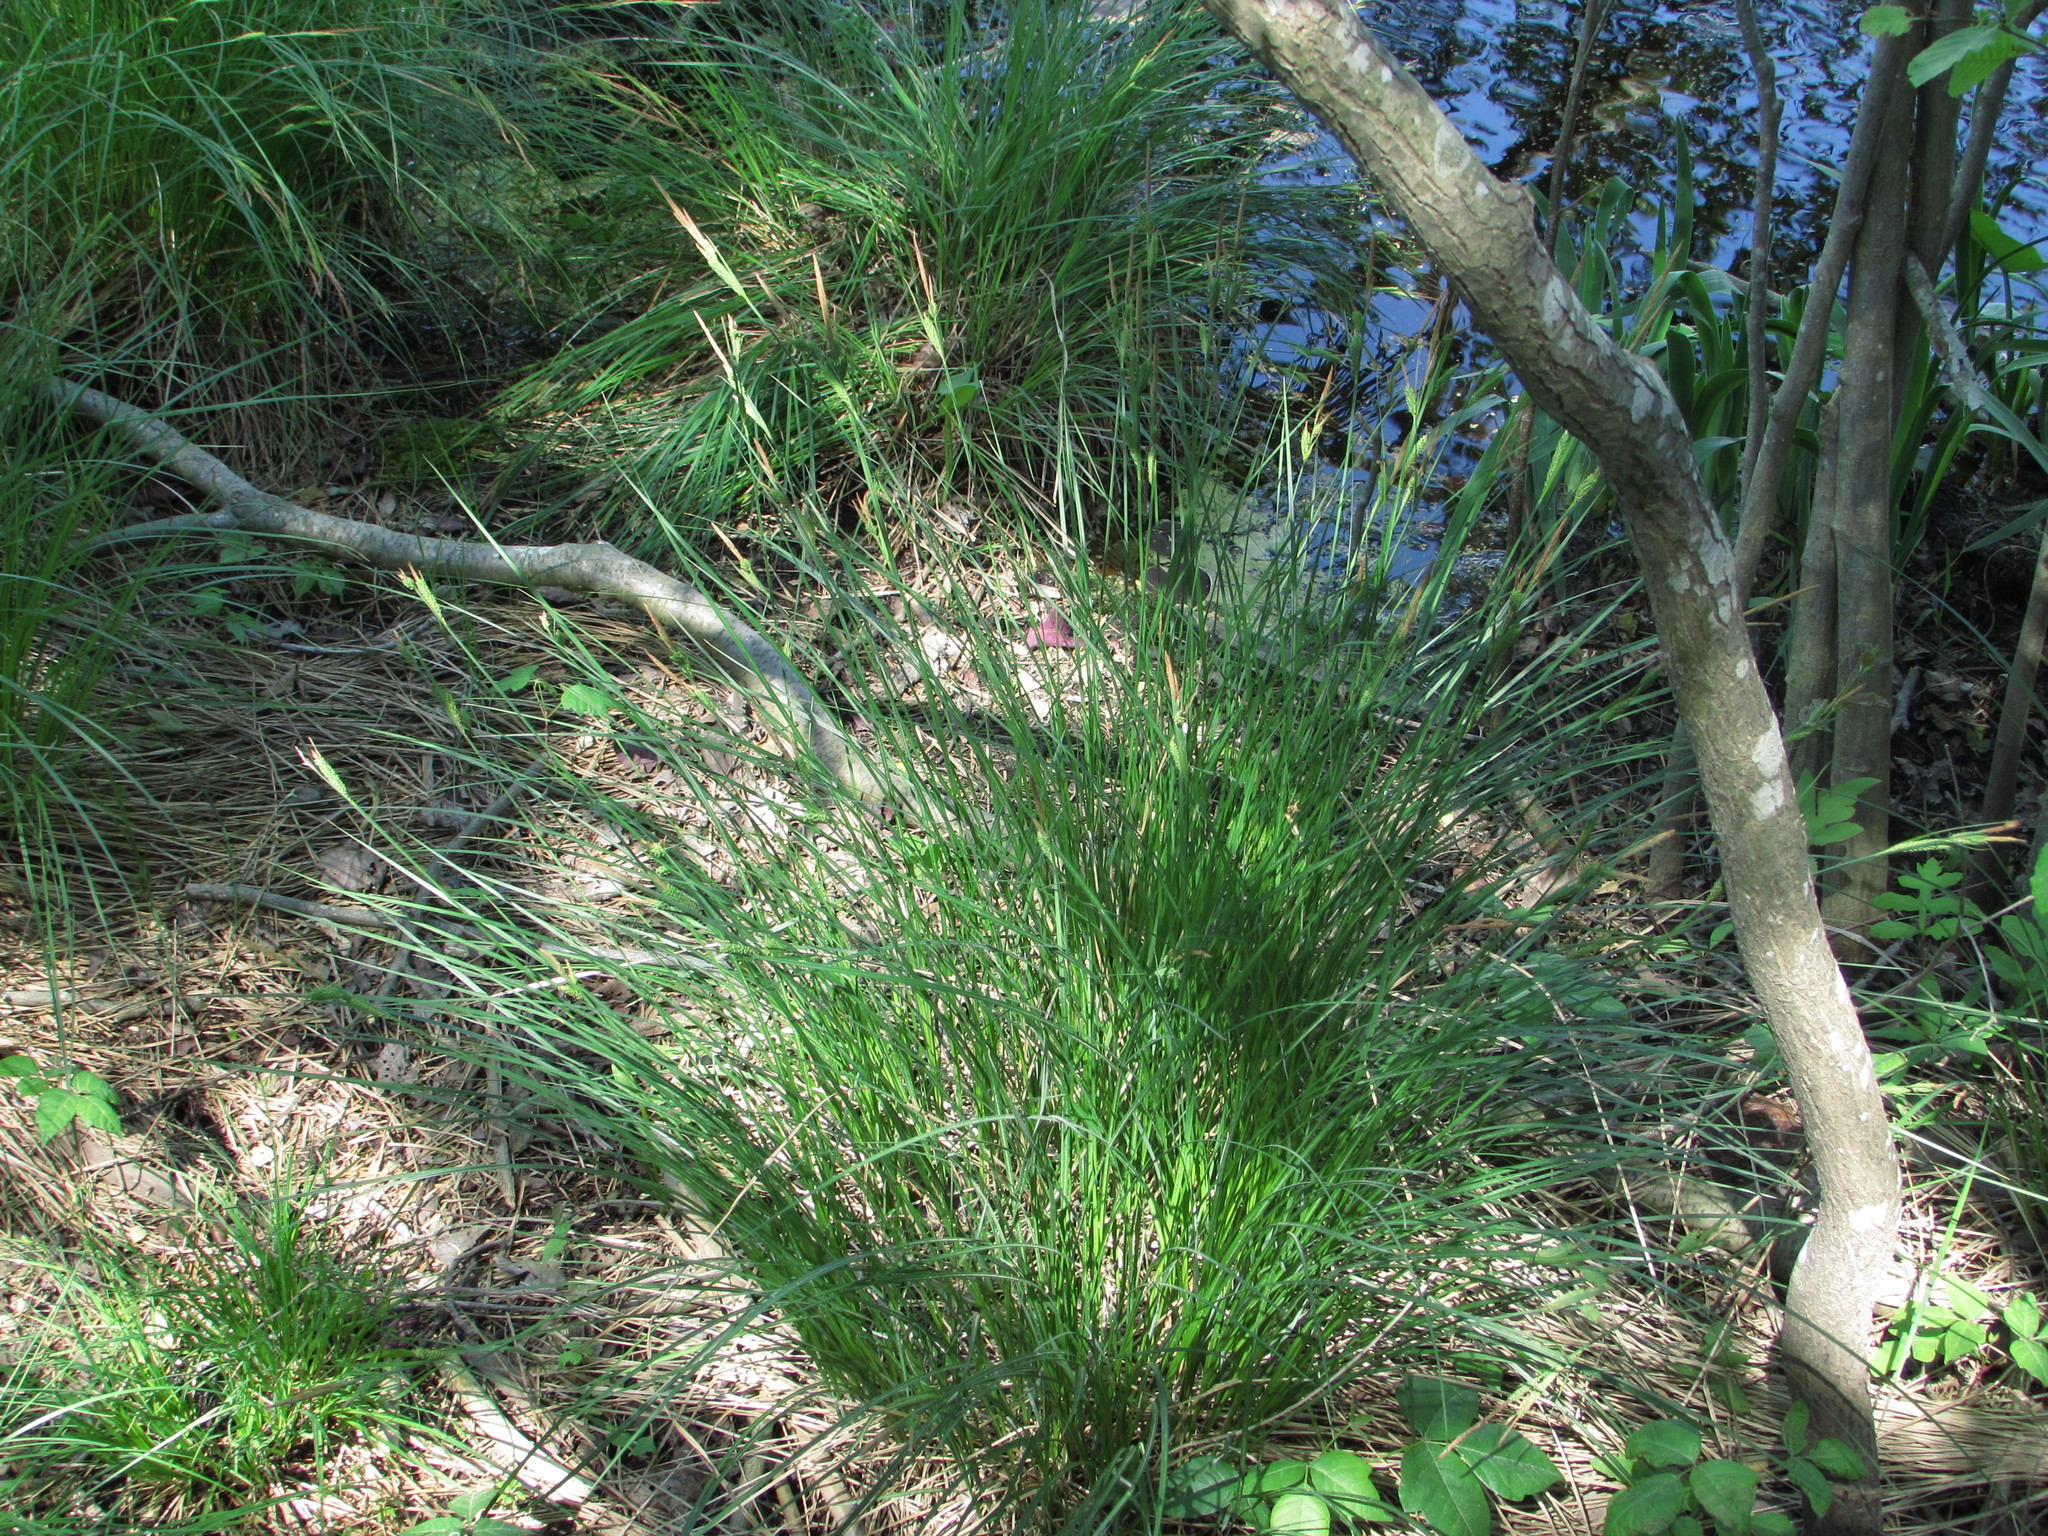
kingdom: Plantae
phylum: Tracheophyta
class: Liliopsida
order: Poales
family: Cyperaceae
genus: Carex
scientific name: Carex stricta
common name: Hummock sedge
